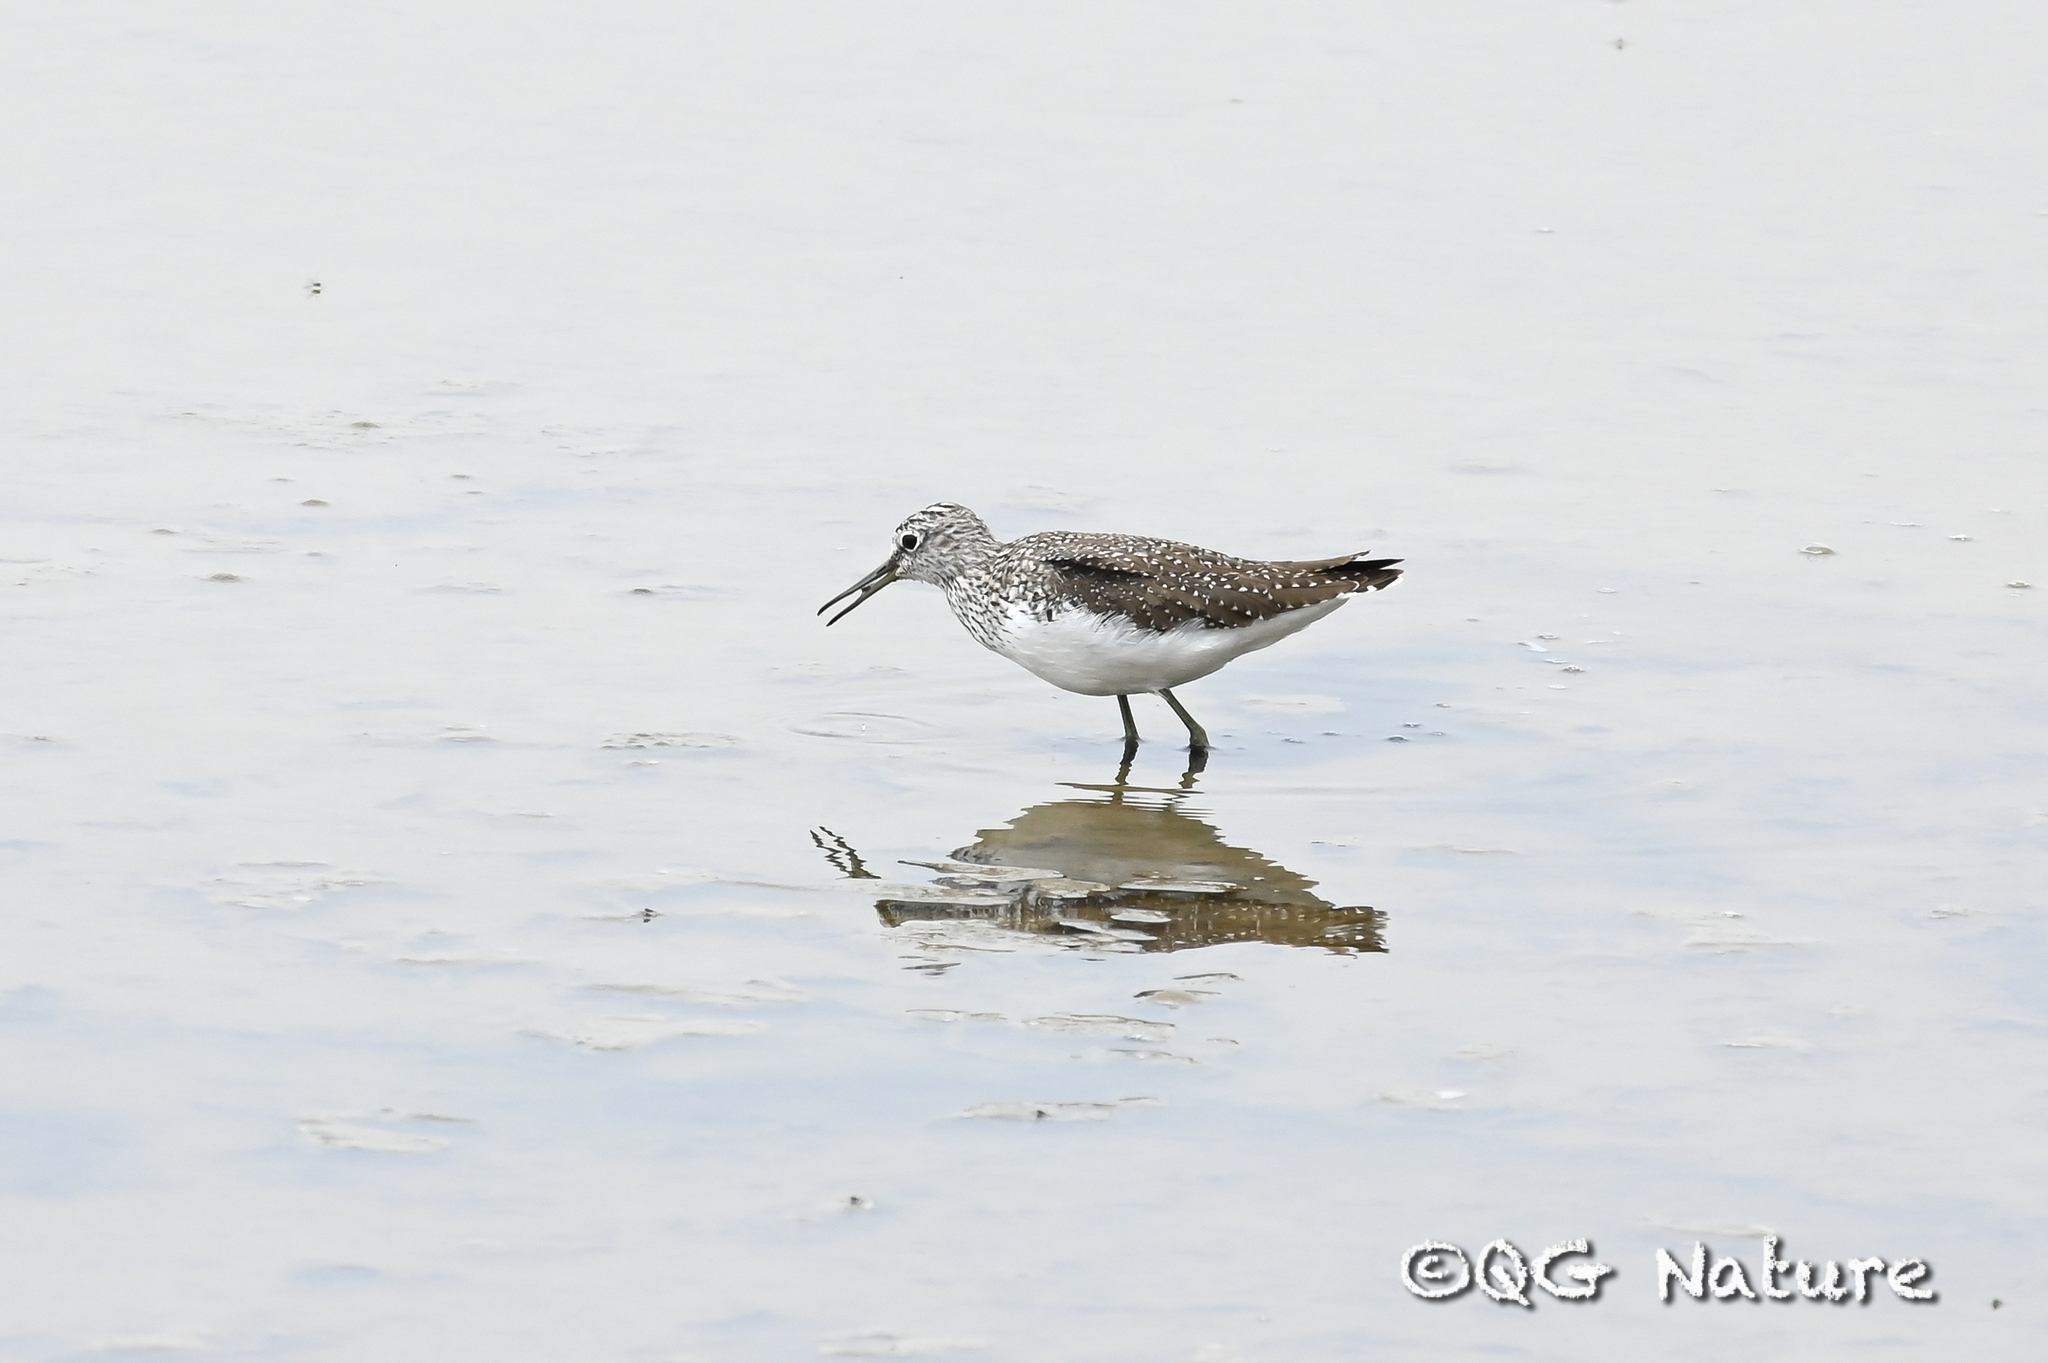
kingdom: Animalia
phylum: Chordata
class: Aves
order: Charadriiformes
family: Scolopacidae
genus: Tringa
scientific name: Tringa ochropus
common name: Green sandpiper
